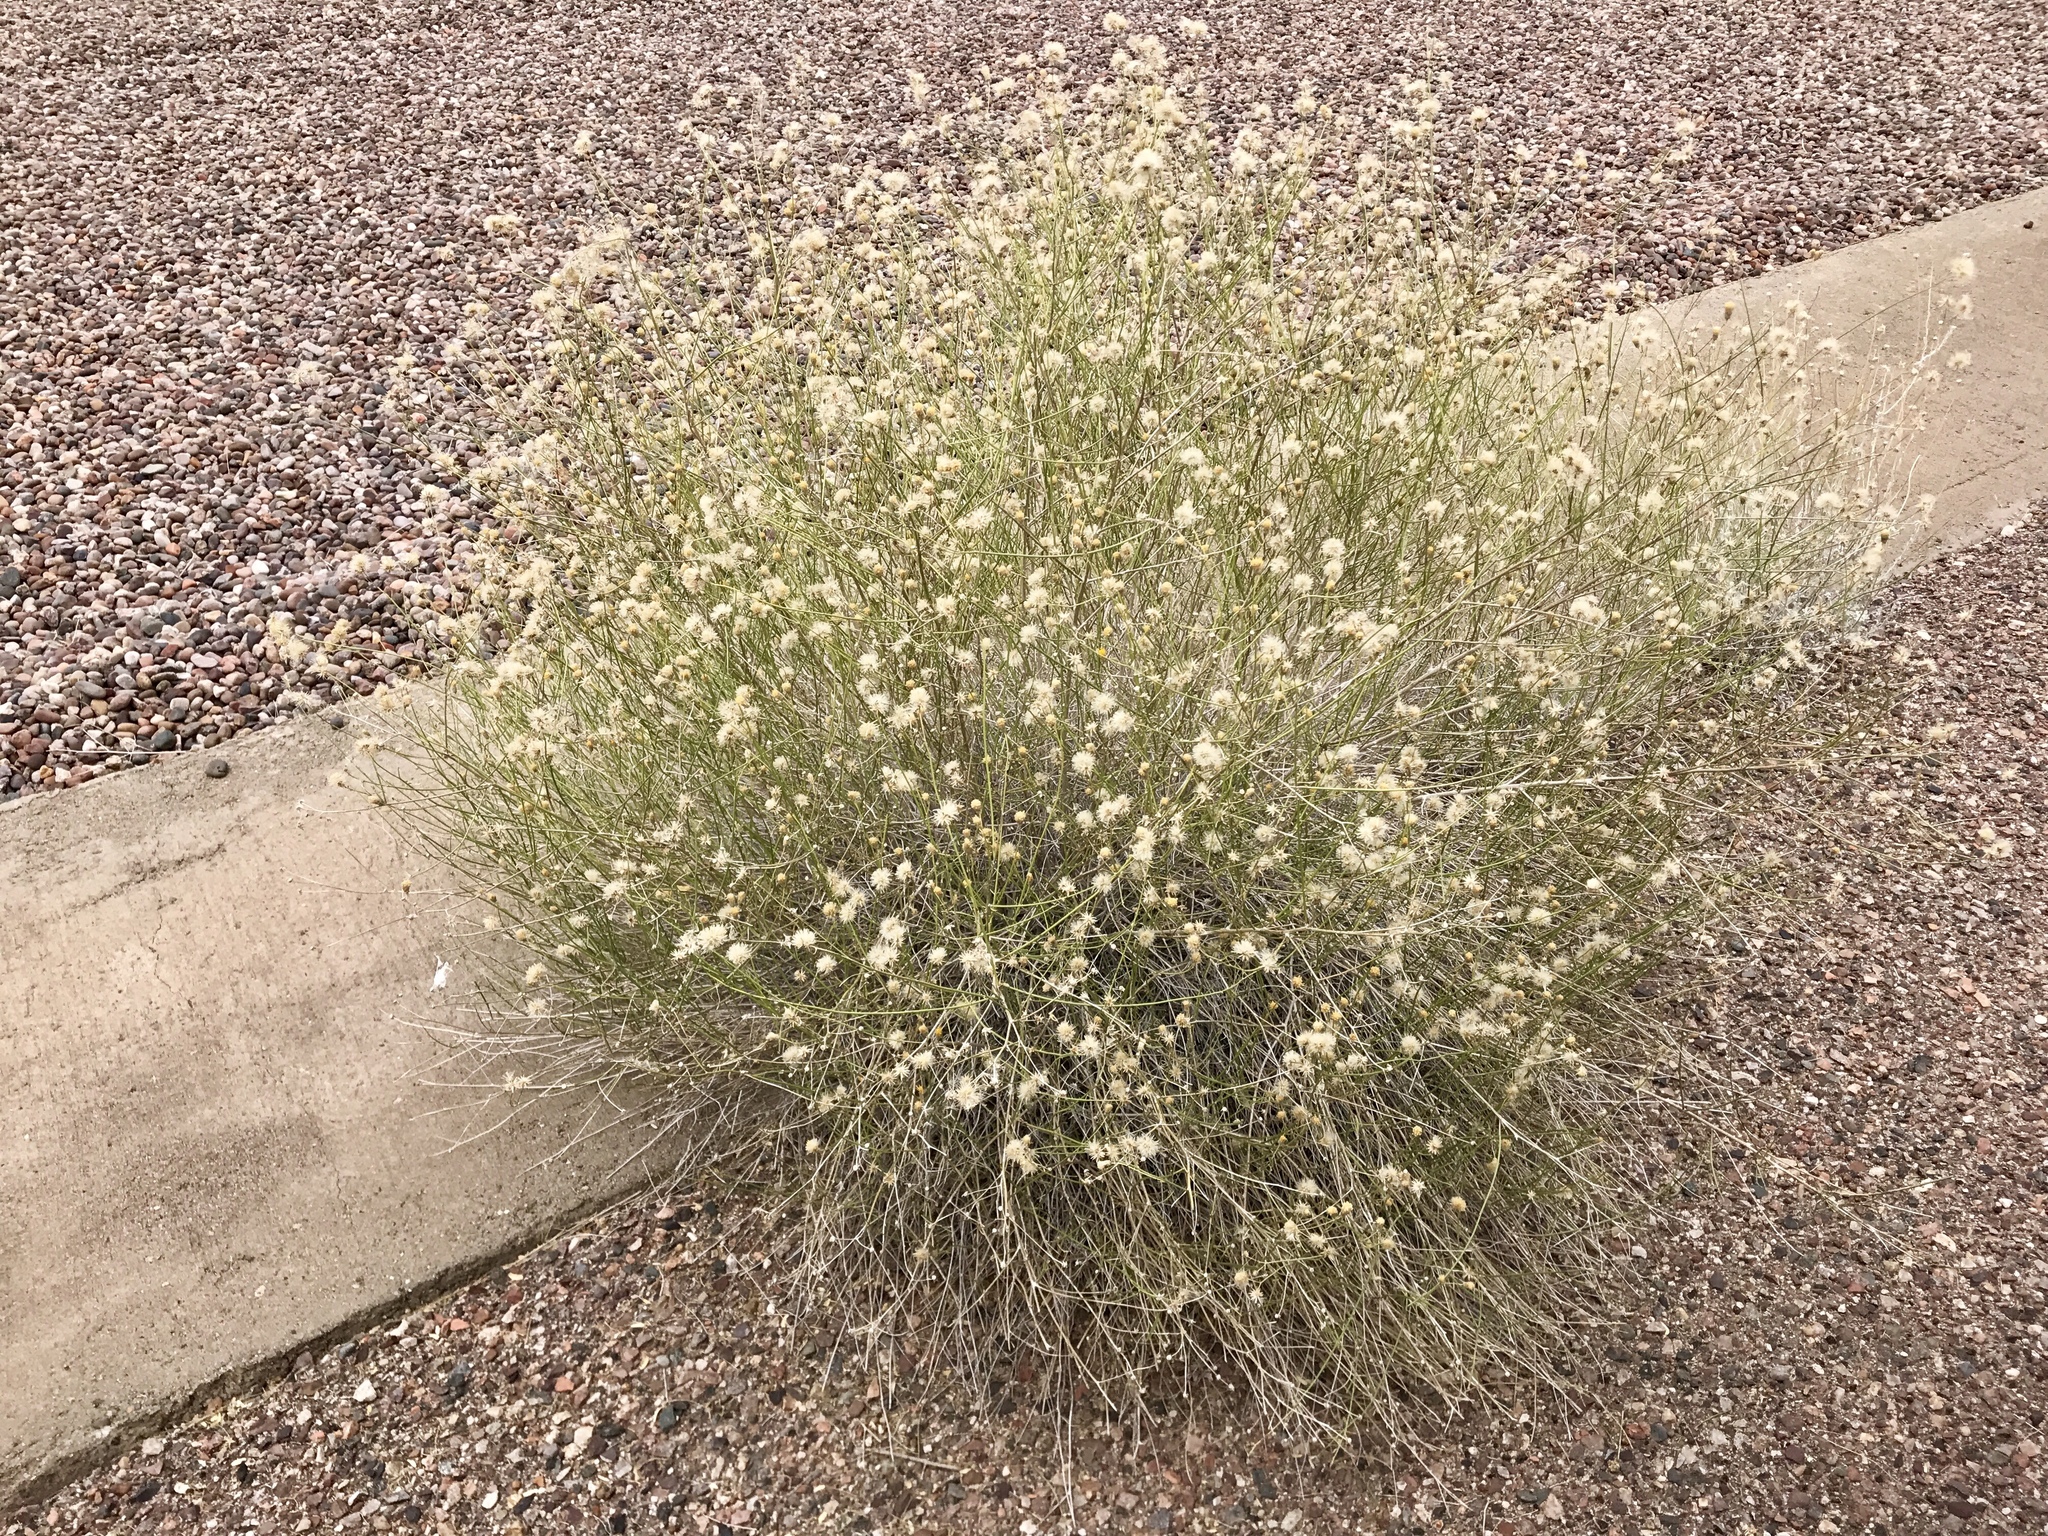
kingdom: Plantae
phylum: Tracheophyta
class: Magnoliopsida
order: Asterales
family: Asteraceae
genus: Bebbia
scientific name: Bebbia juncea
